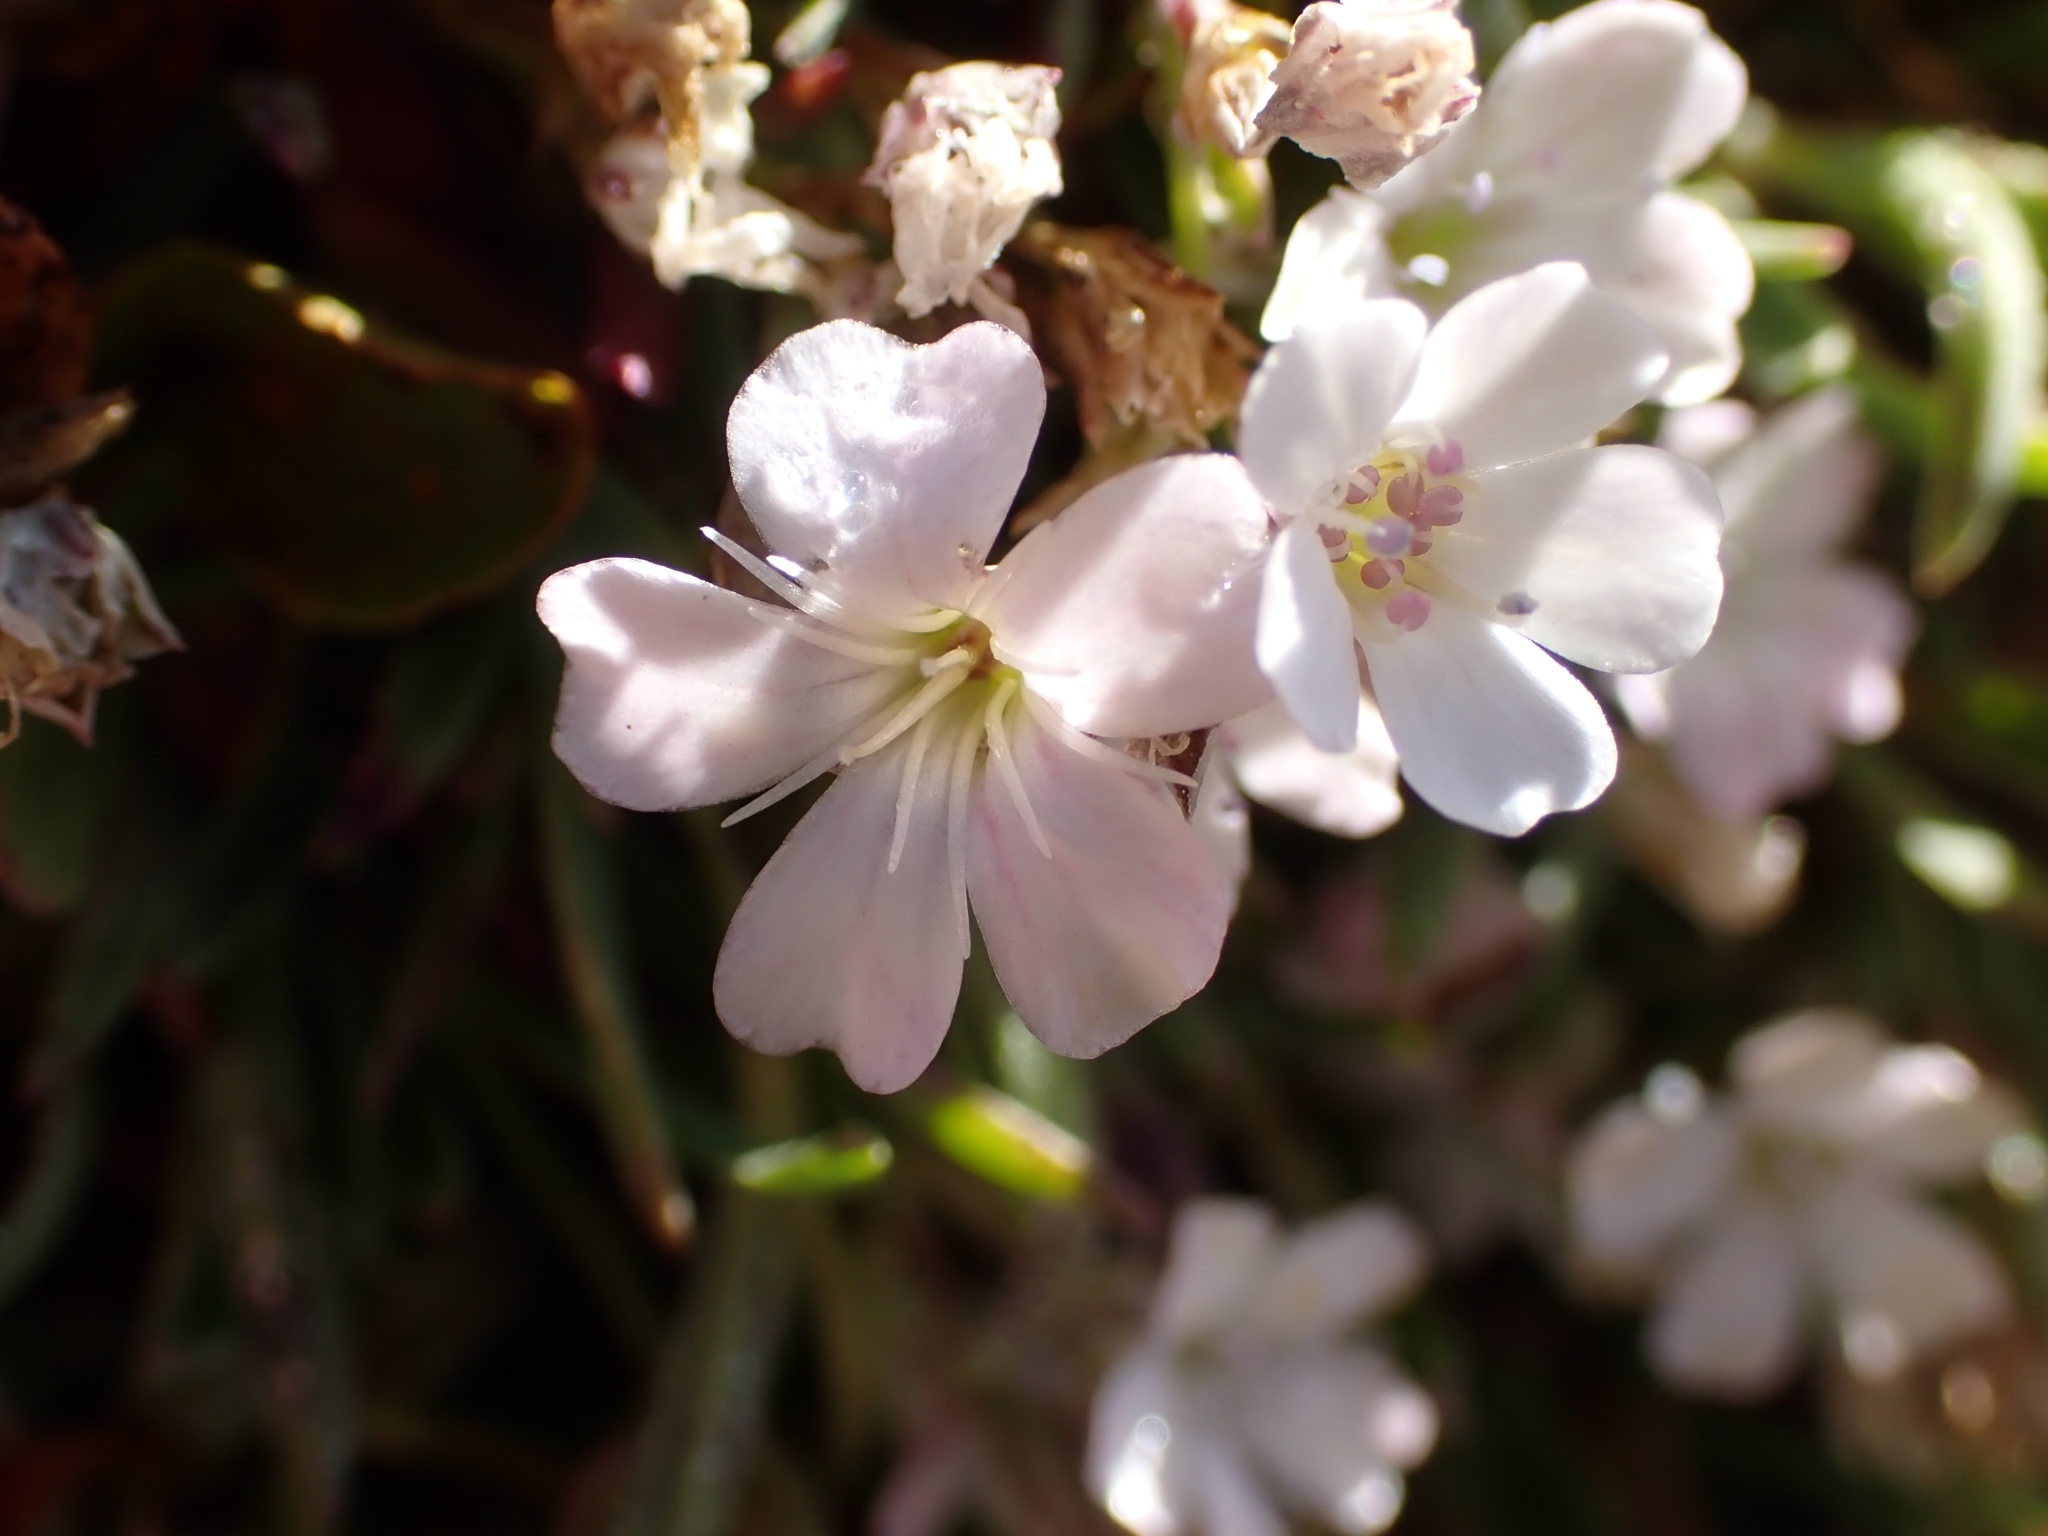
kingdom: Plantae
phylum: Tracheophyta
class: Magnoliopsida
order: Caryophyllales
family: Caryophyllaceae
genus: Gypsophila
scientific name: Gypsophila repens
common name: Creeping baby's-breath
